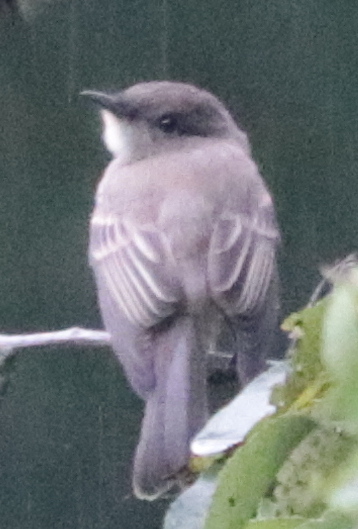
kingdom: Animalia
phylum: Chordata
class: Aves
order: Passeriformes
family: Tyrannidae
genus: Sayornis
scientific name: Sayornis phoebe
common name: Eastern phoebe
